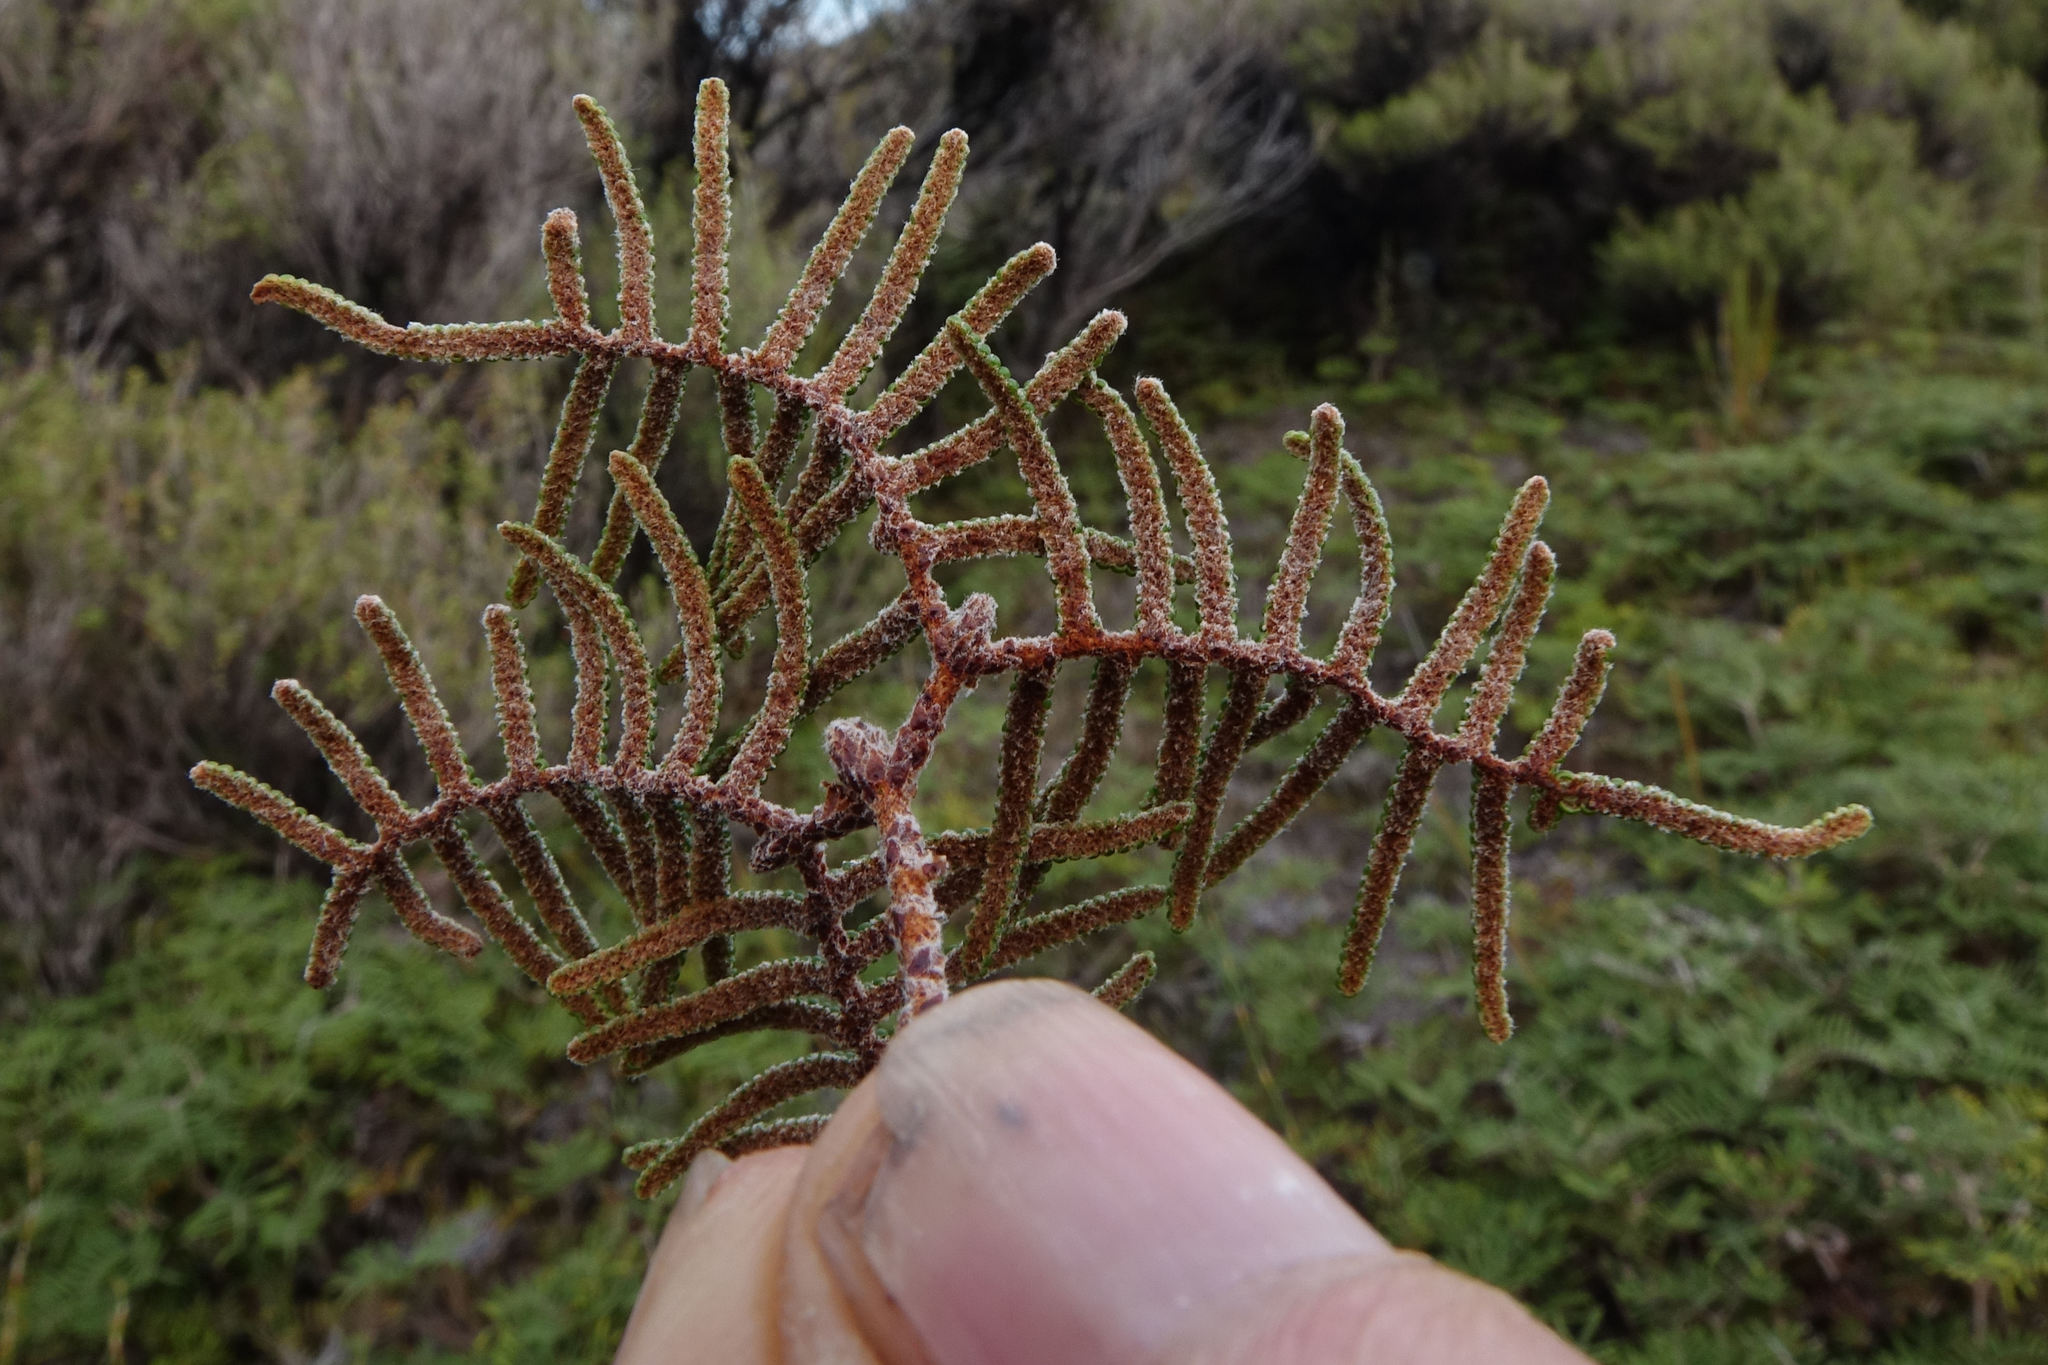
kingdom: Plantae
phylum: Tracheophyta
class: Polypodiopsida
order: Gleicheniales
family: Gleicheniaceae
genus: Gleichenia
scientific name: Gleichenia alpina
